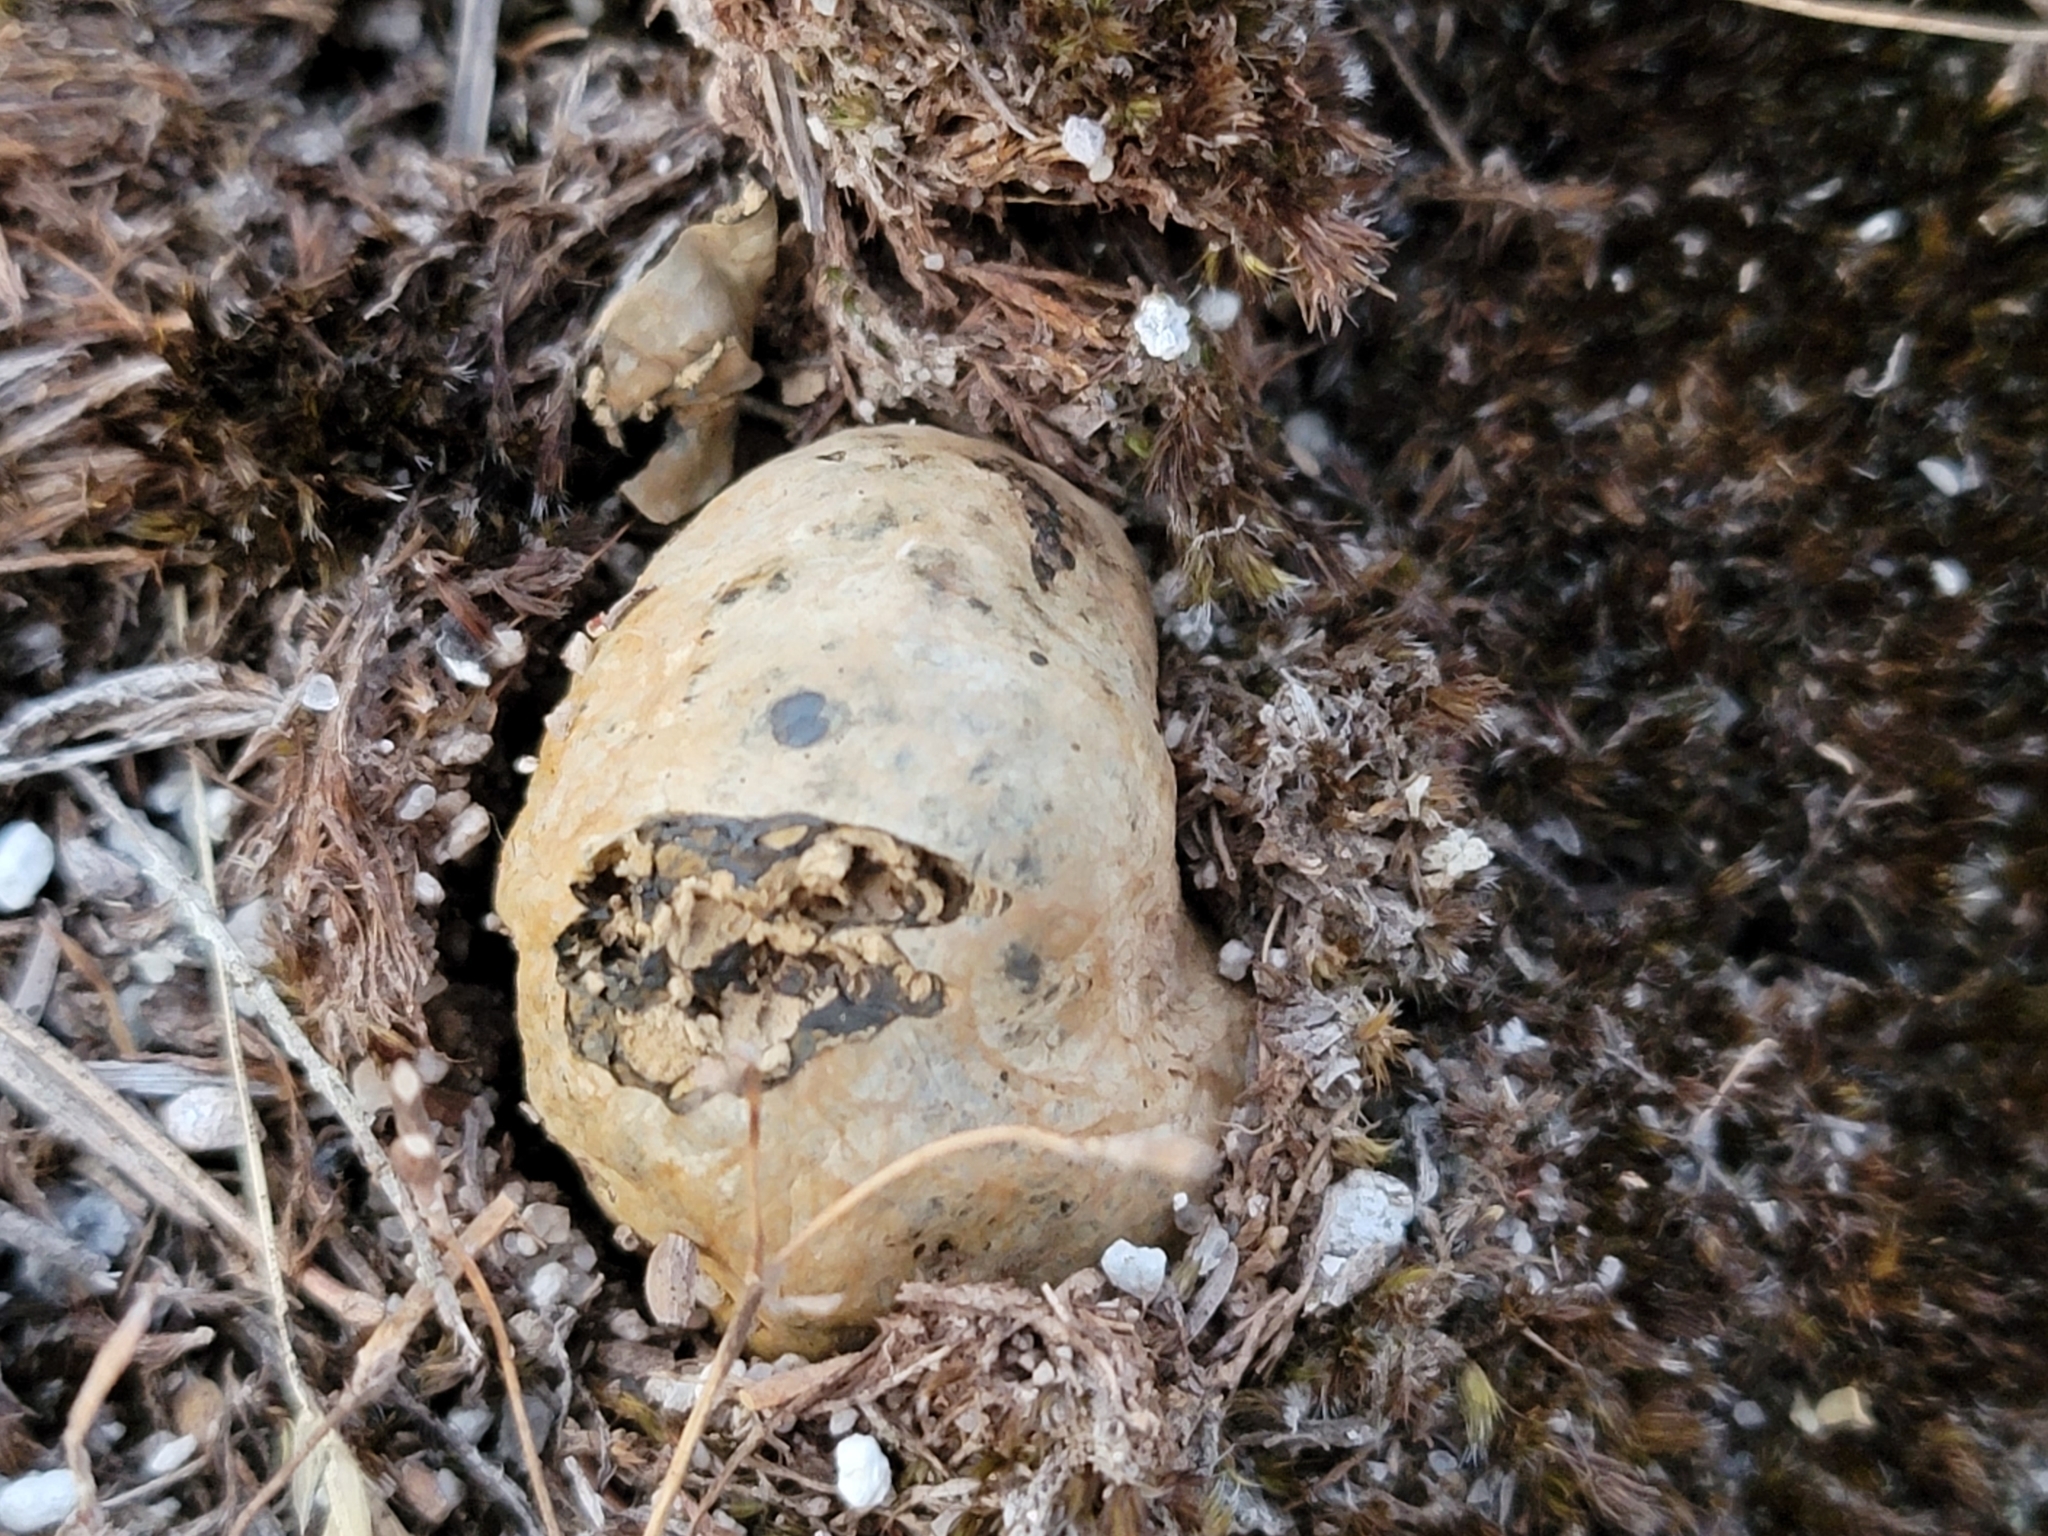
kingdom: Fungi
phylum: Basidiomycota
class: Agaricomycetes
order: Boletales
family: Sclerodermataceae
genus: Pisolithus
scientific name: Pisolithus thermaeus
